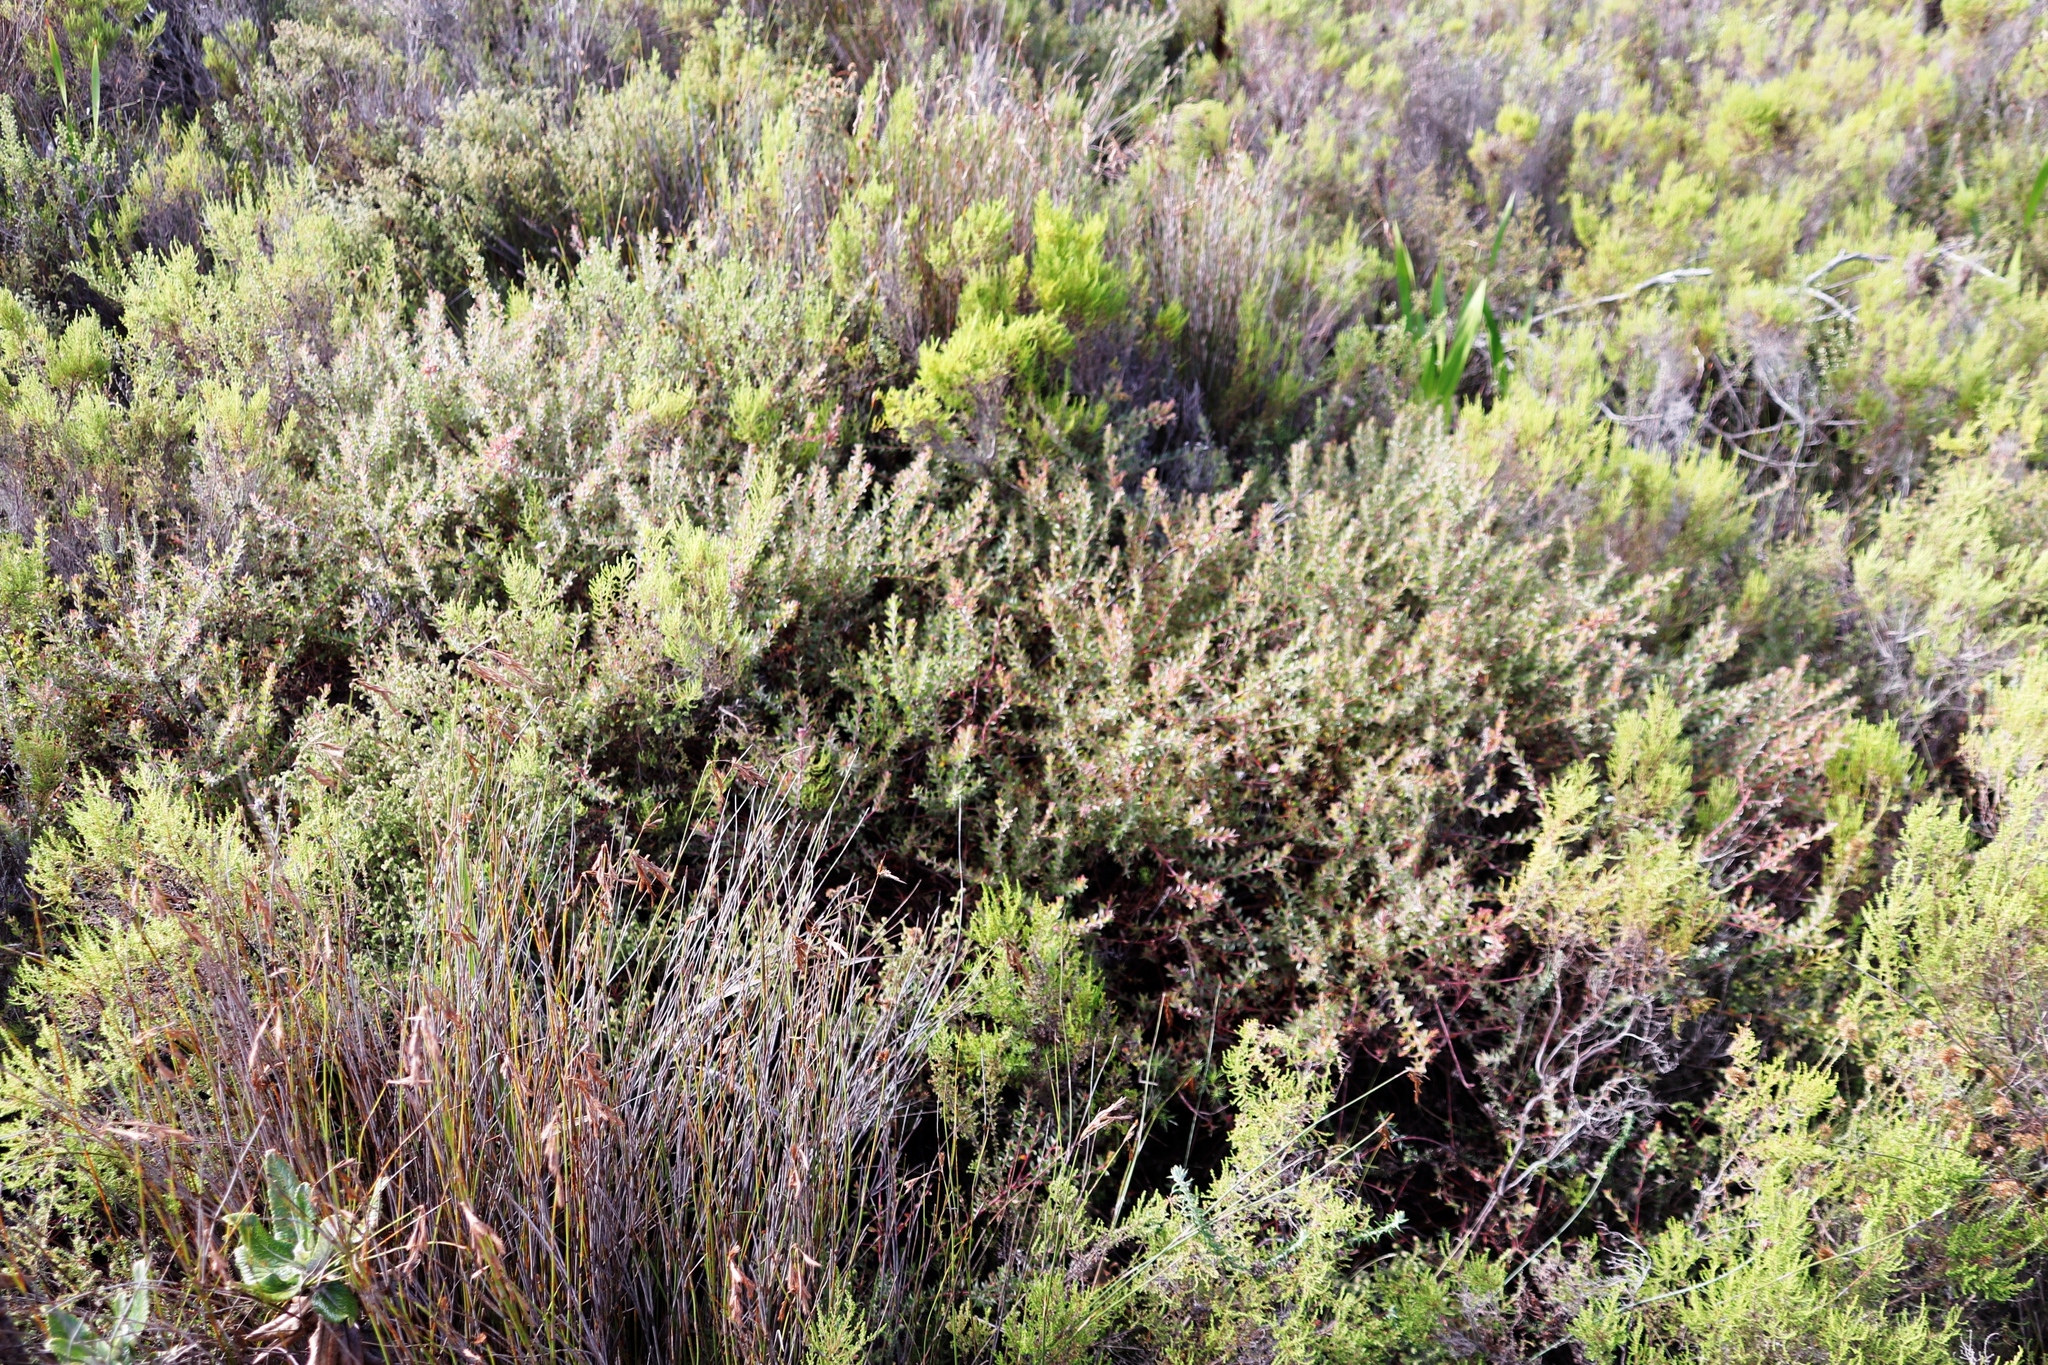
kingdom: Plantae
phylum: Tracheophyta
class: Magnoliopsida
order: Proteales
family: Proteaceae
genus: Diastella
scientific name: Diastella divaricata
